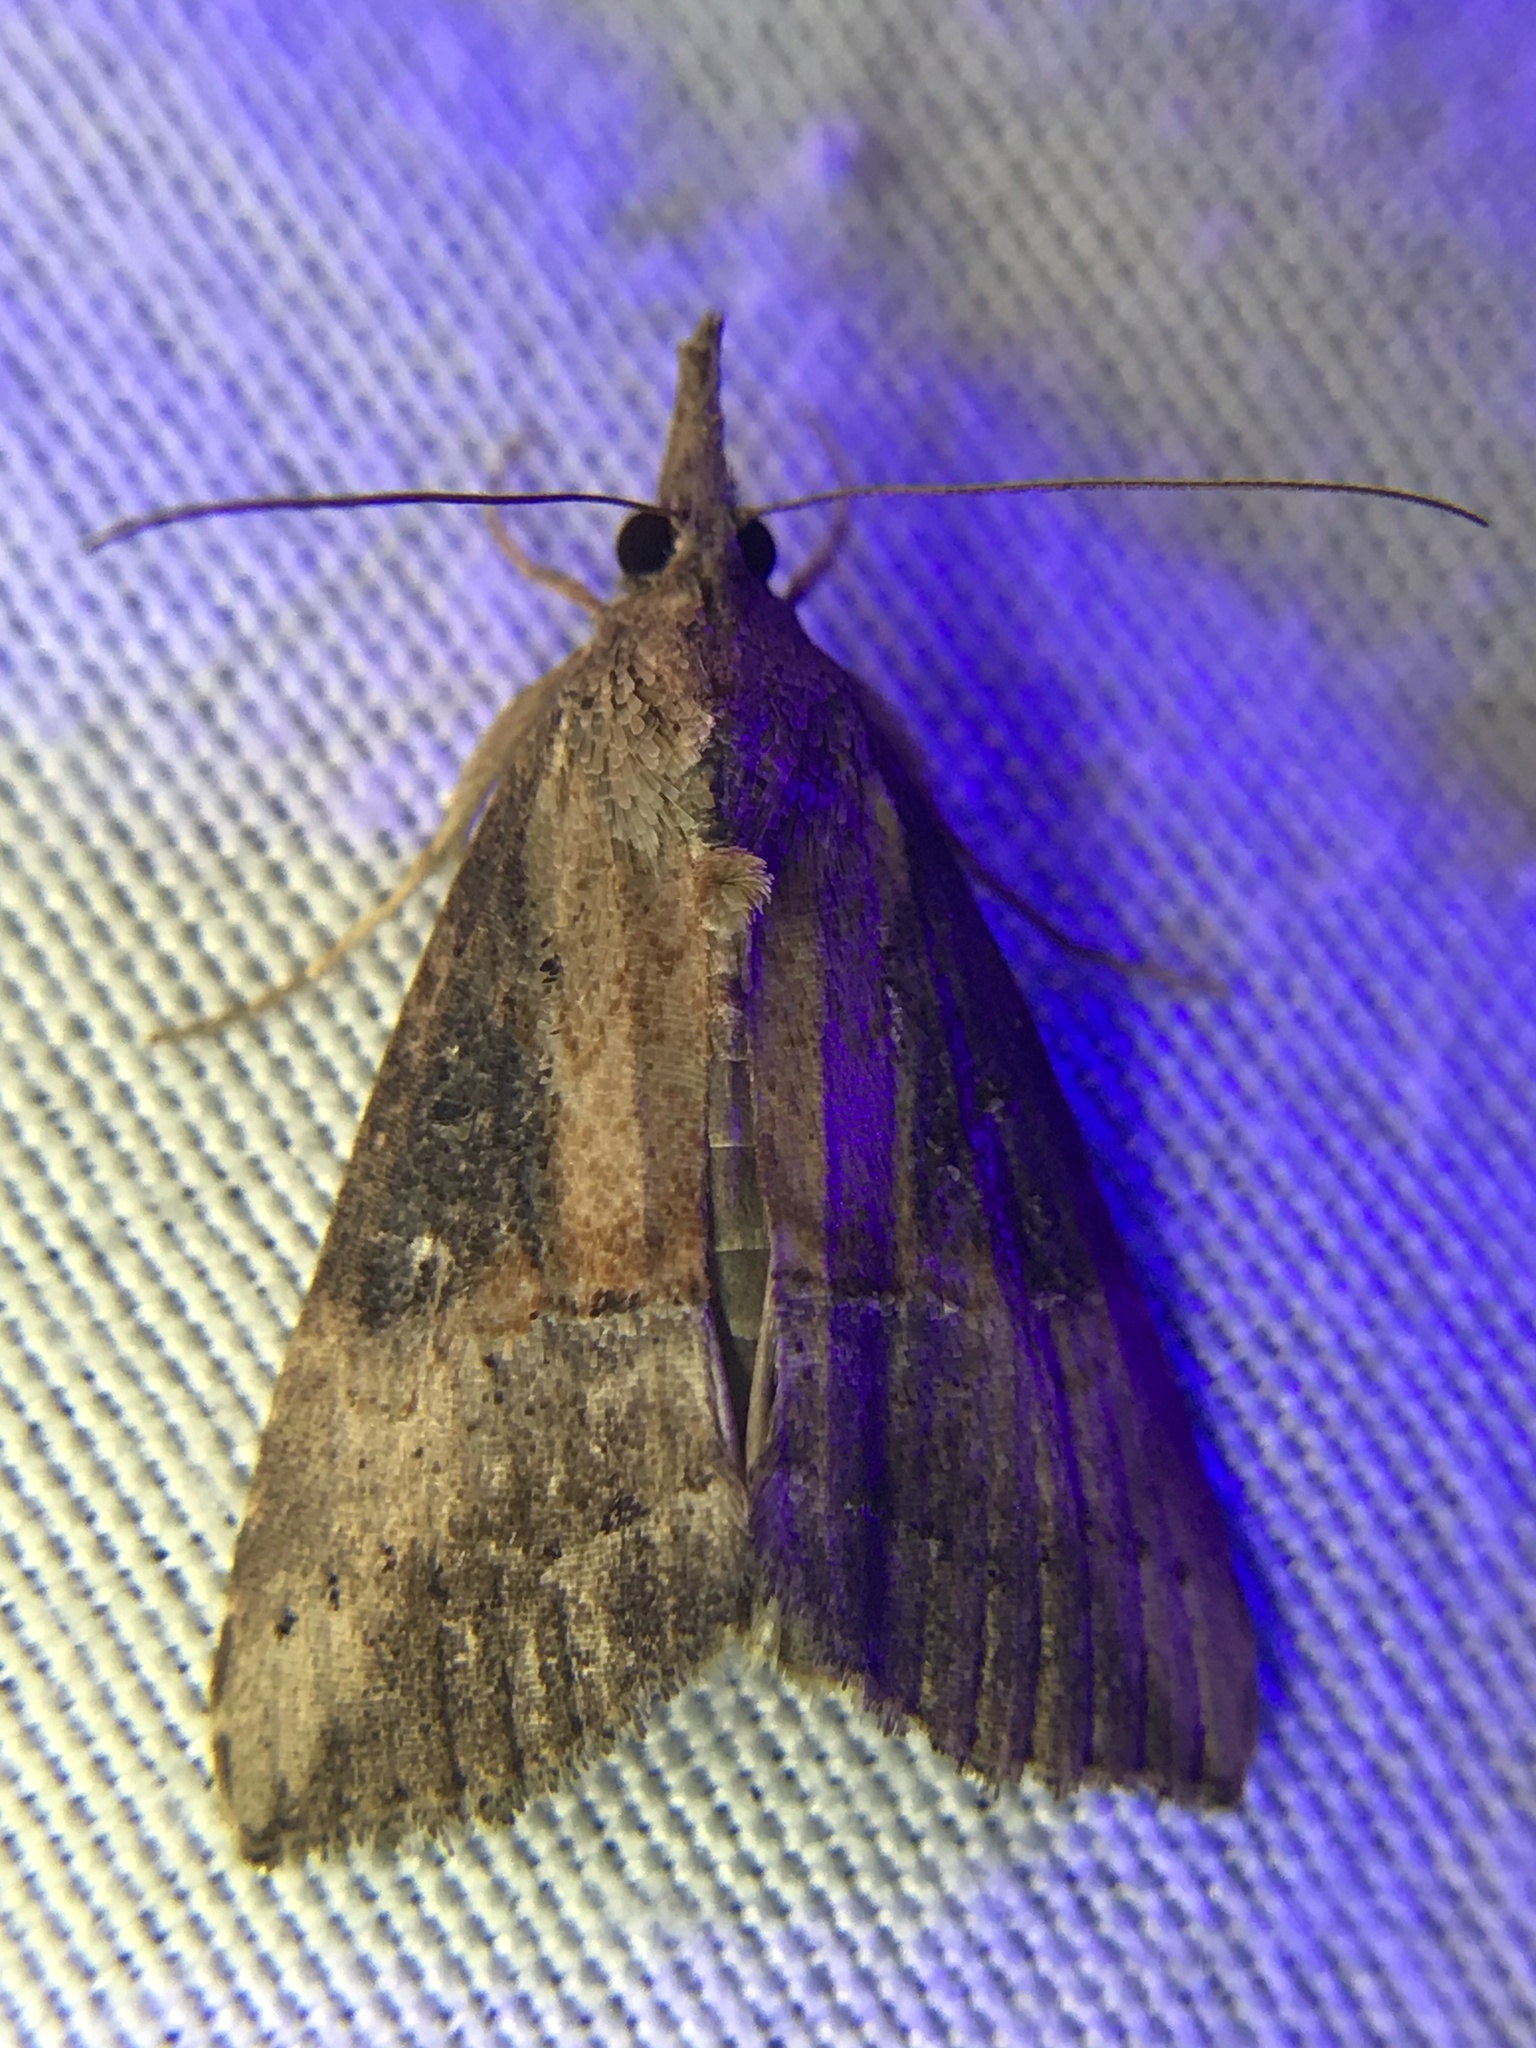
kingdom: Animalia
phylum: Arthropoda
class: Insecta
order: Lepidoptera
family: Erebidae
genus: Hypena
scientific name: Hypena scabra
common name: Green cloverworm
